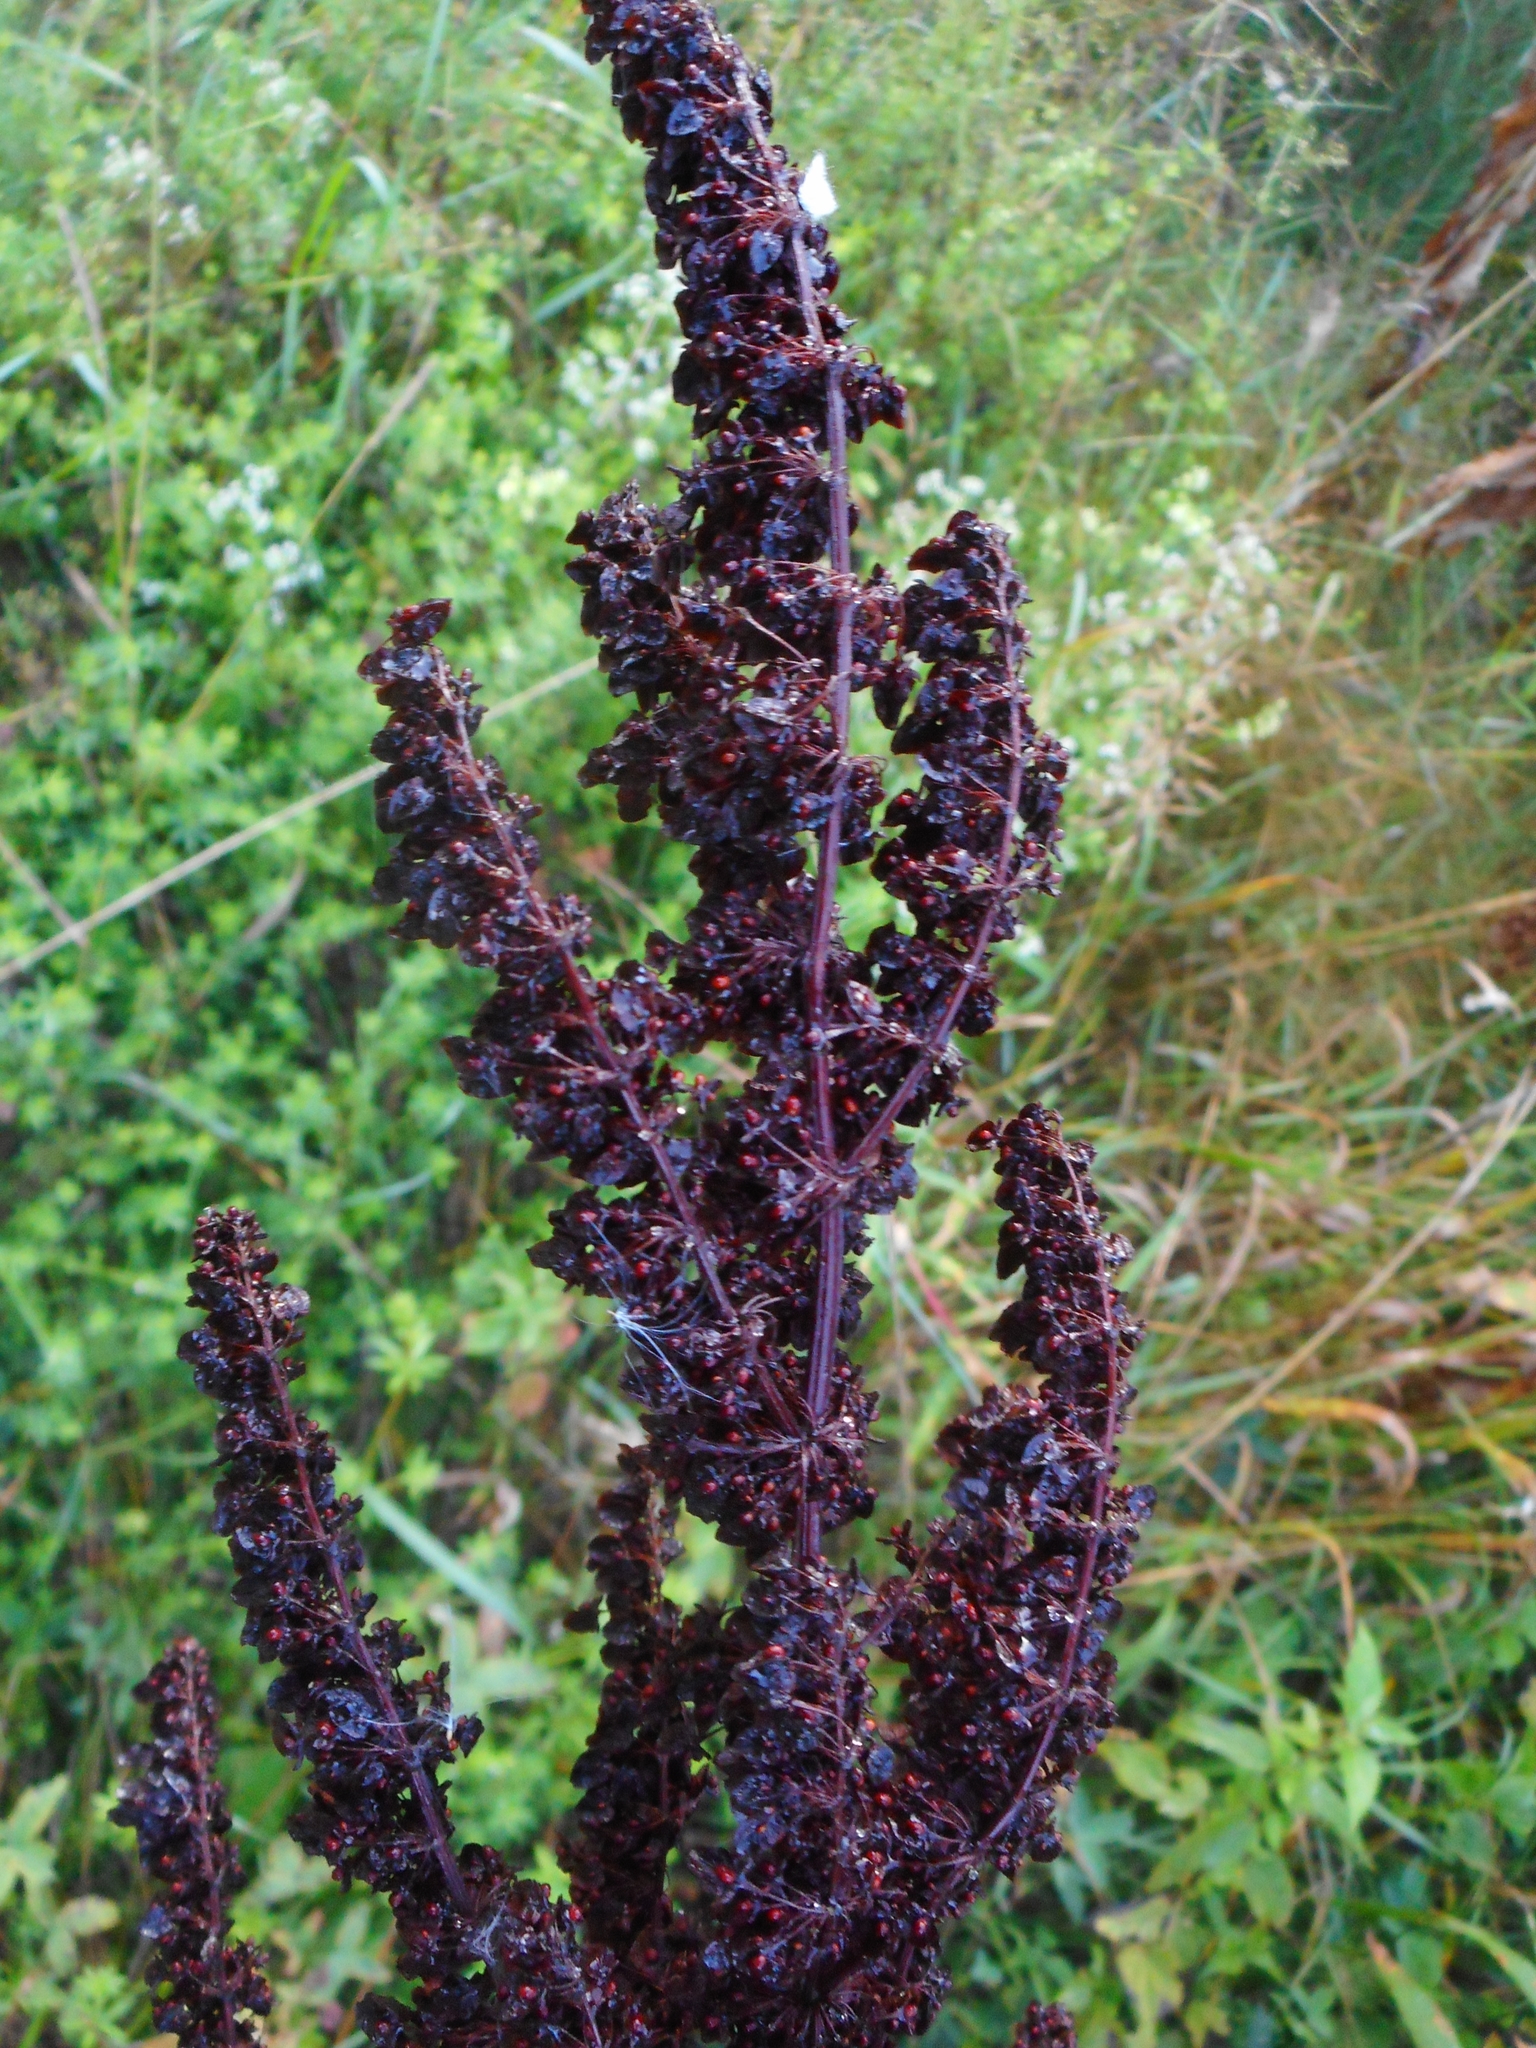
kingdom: Plantae
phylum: Tracheophyta
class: Magnoliopsida
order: Caryophyllales
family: Polygonaceae
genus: Rumex
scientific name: Rumex crispus
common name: Curled dock
